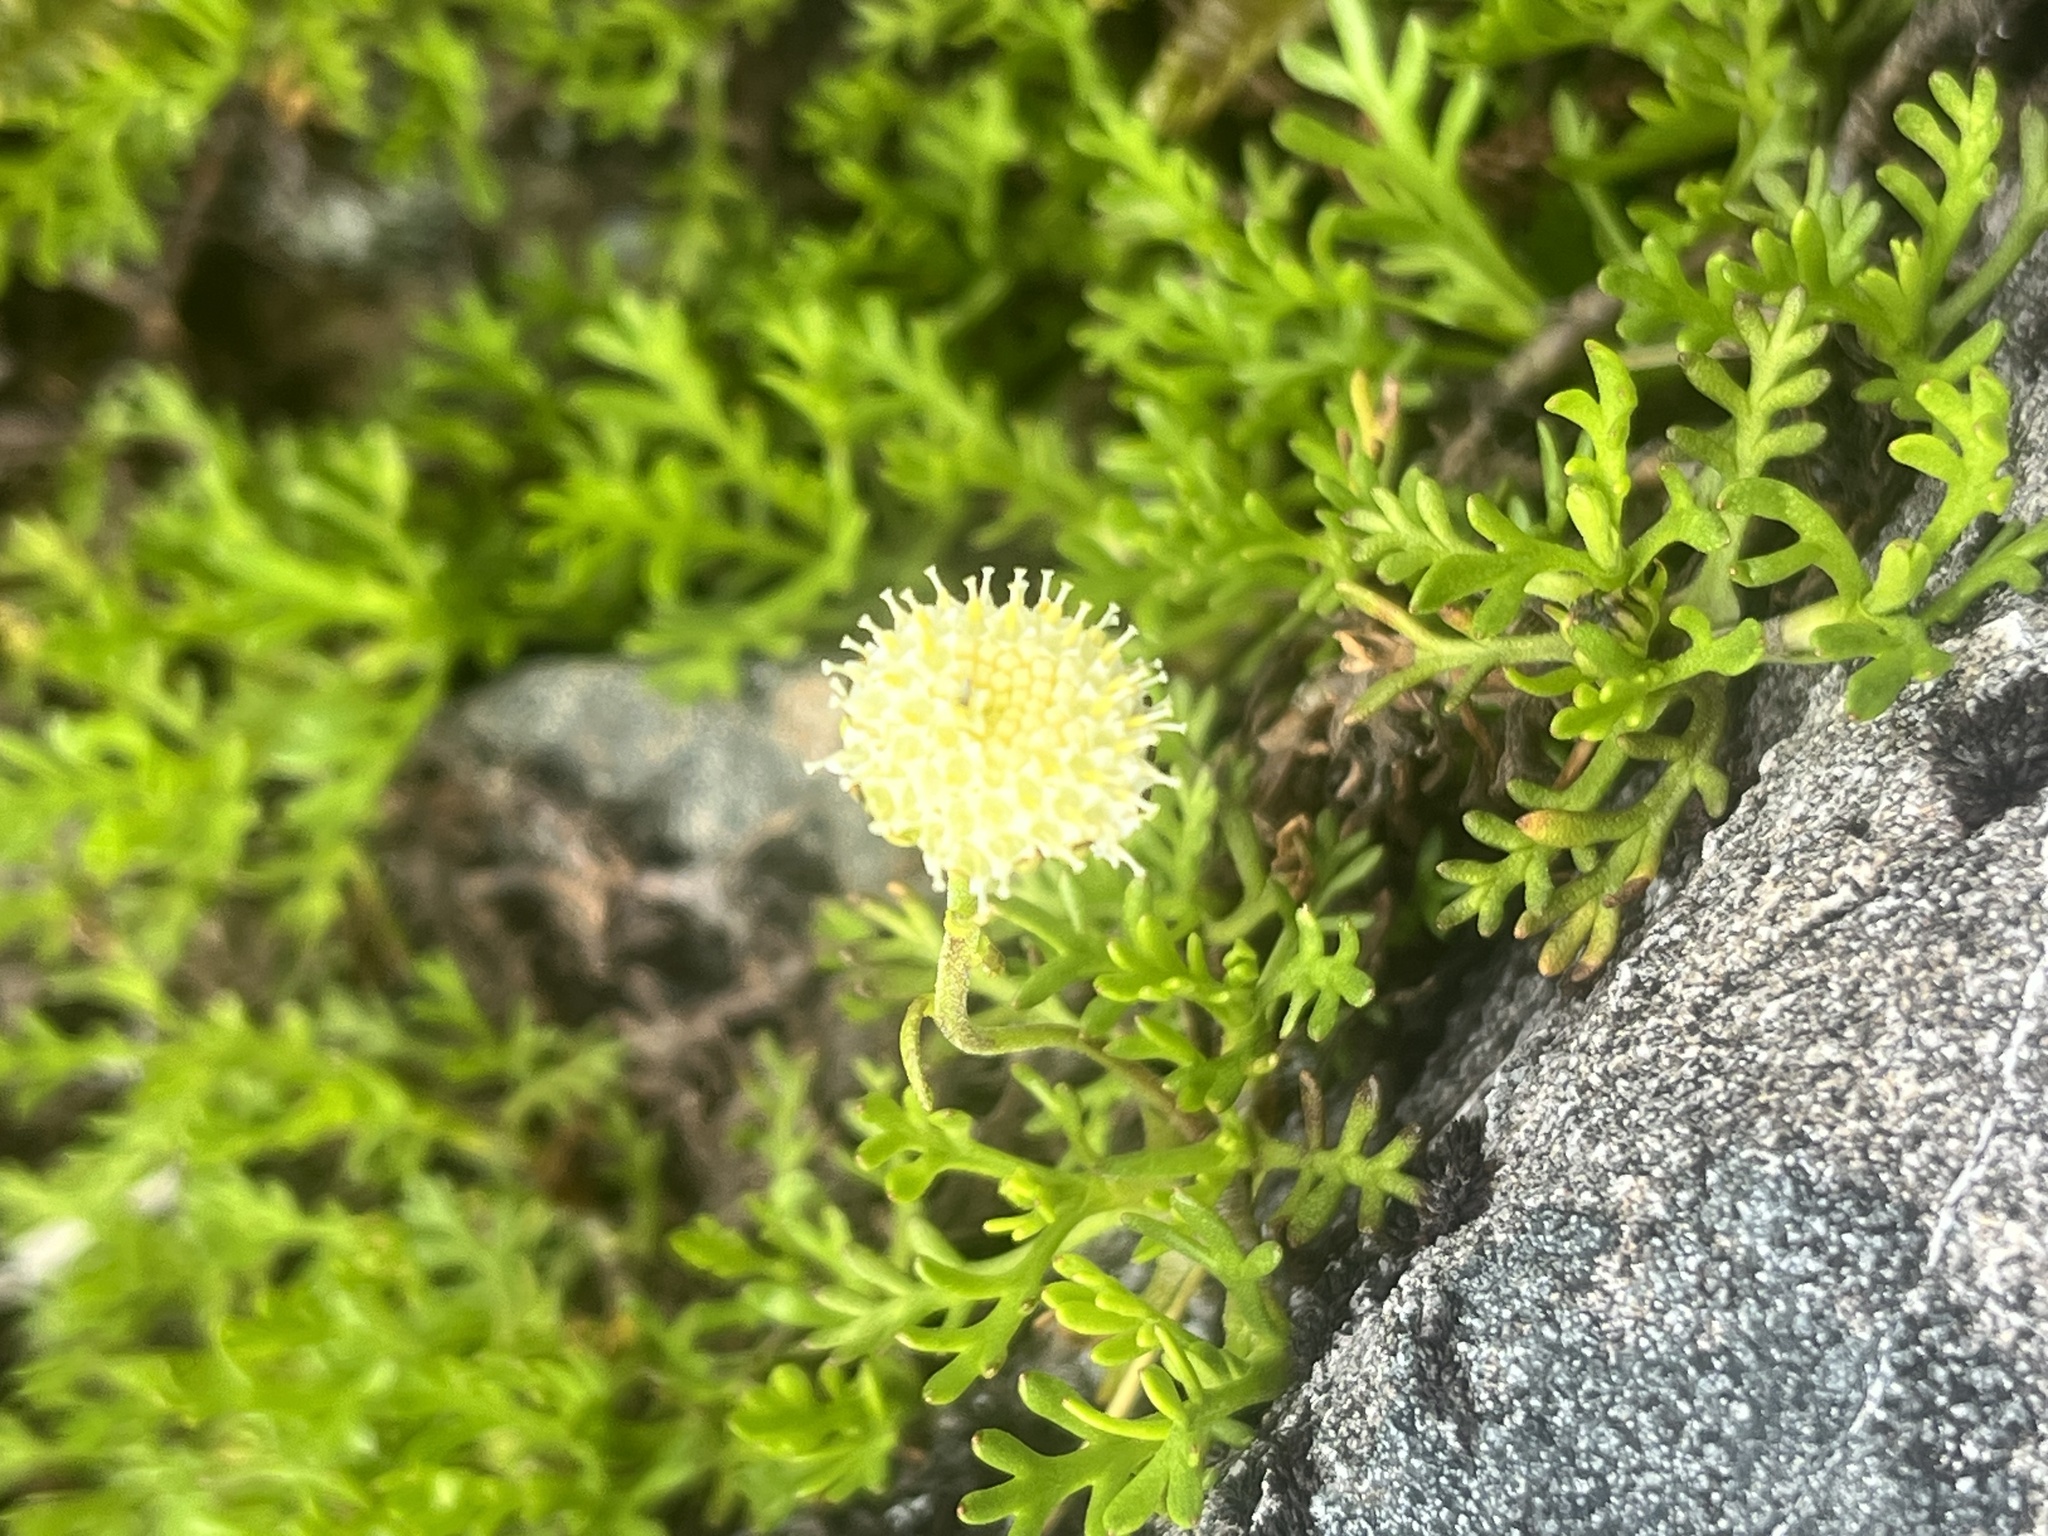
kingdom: Plantae
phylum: Tracheophyta
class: Magnoliopsida
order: Asterales
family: Asteraceae
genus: Leptinella
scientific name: Leptinella pyrethrifolia
